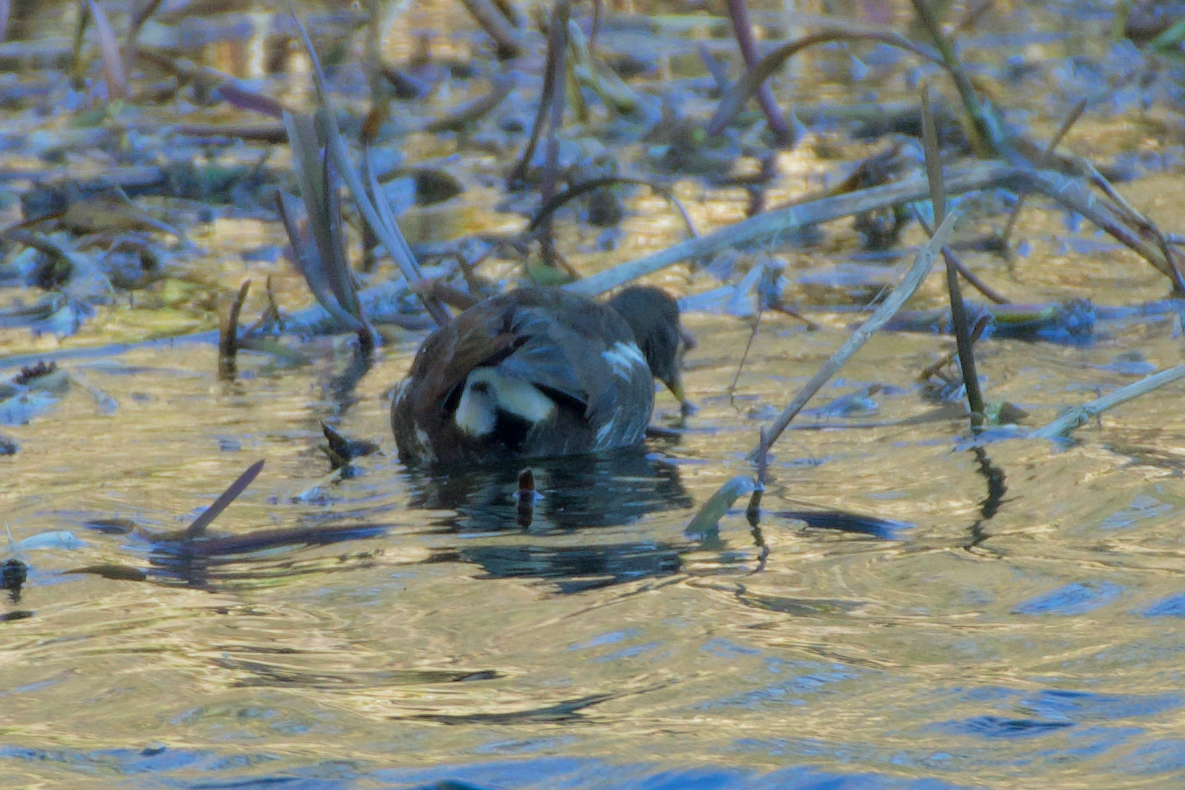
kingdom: Animalia
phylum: Chordata
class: Aves
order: Gruiformes
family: Rallidae
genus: Gallinula
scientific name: Gallinula chloropus
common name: Common moorhen
